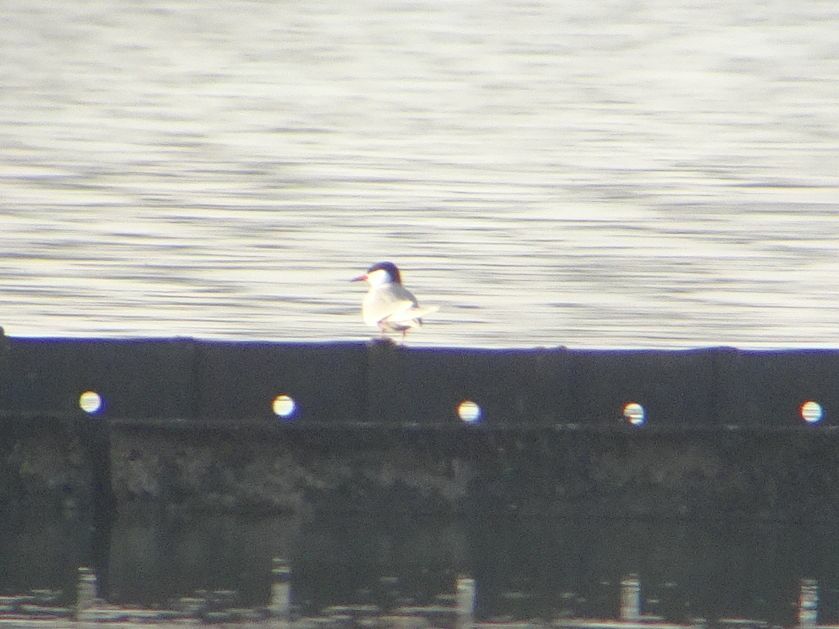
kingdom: Animalia
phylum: Chordata
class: Aves
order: Charadriiformes
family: Laridae
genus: Sterna
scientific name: Sterna hirundo
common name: Common tern
